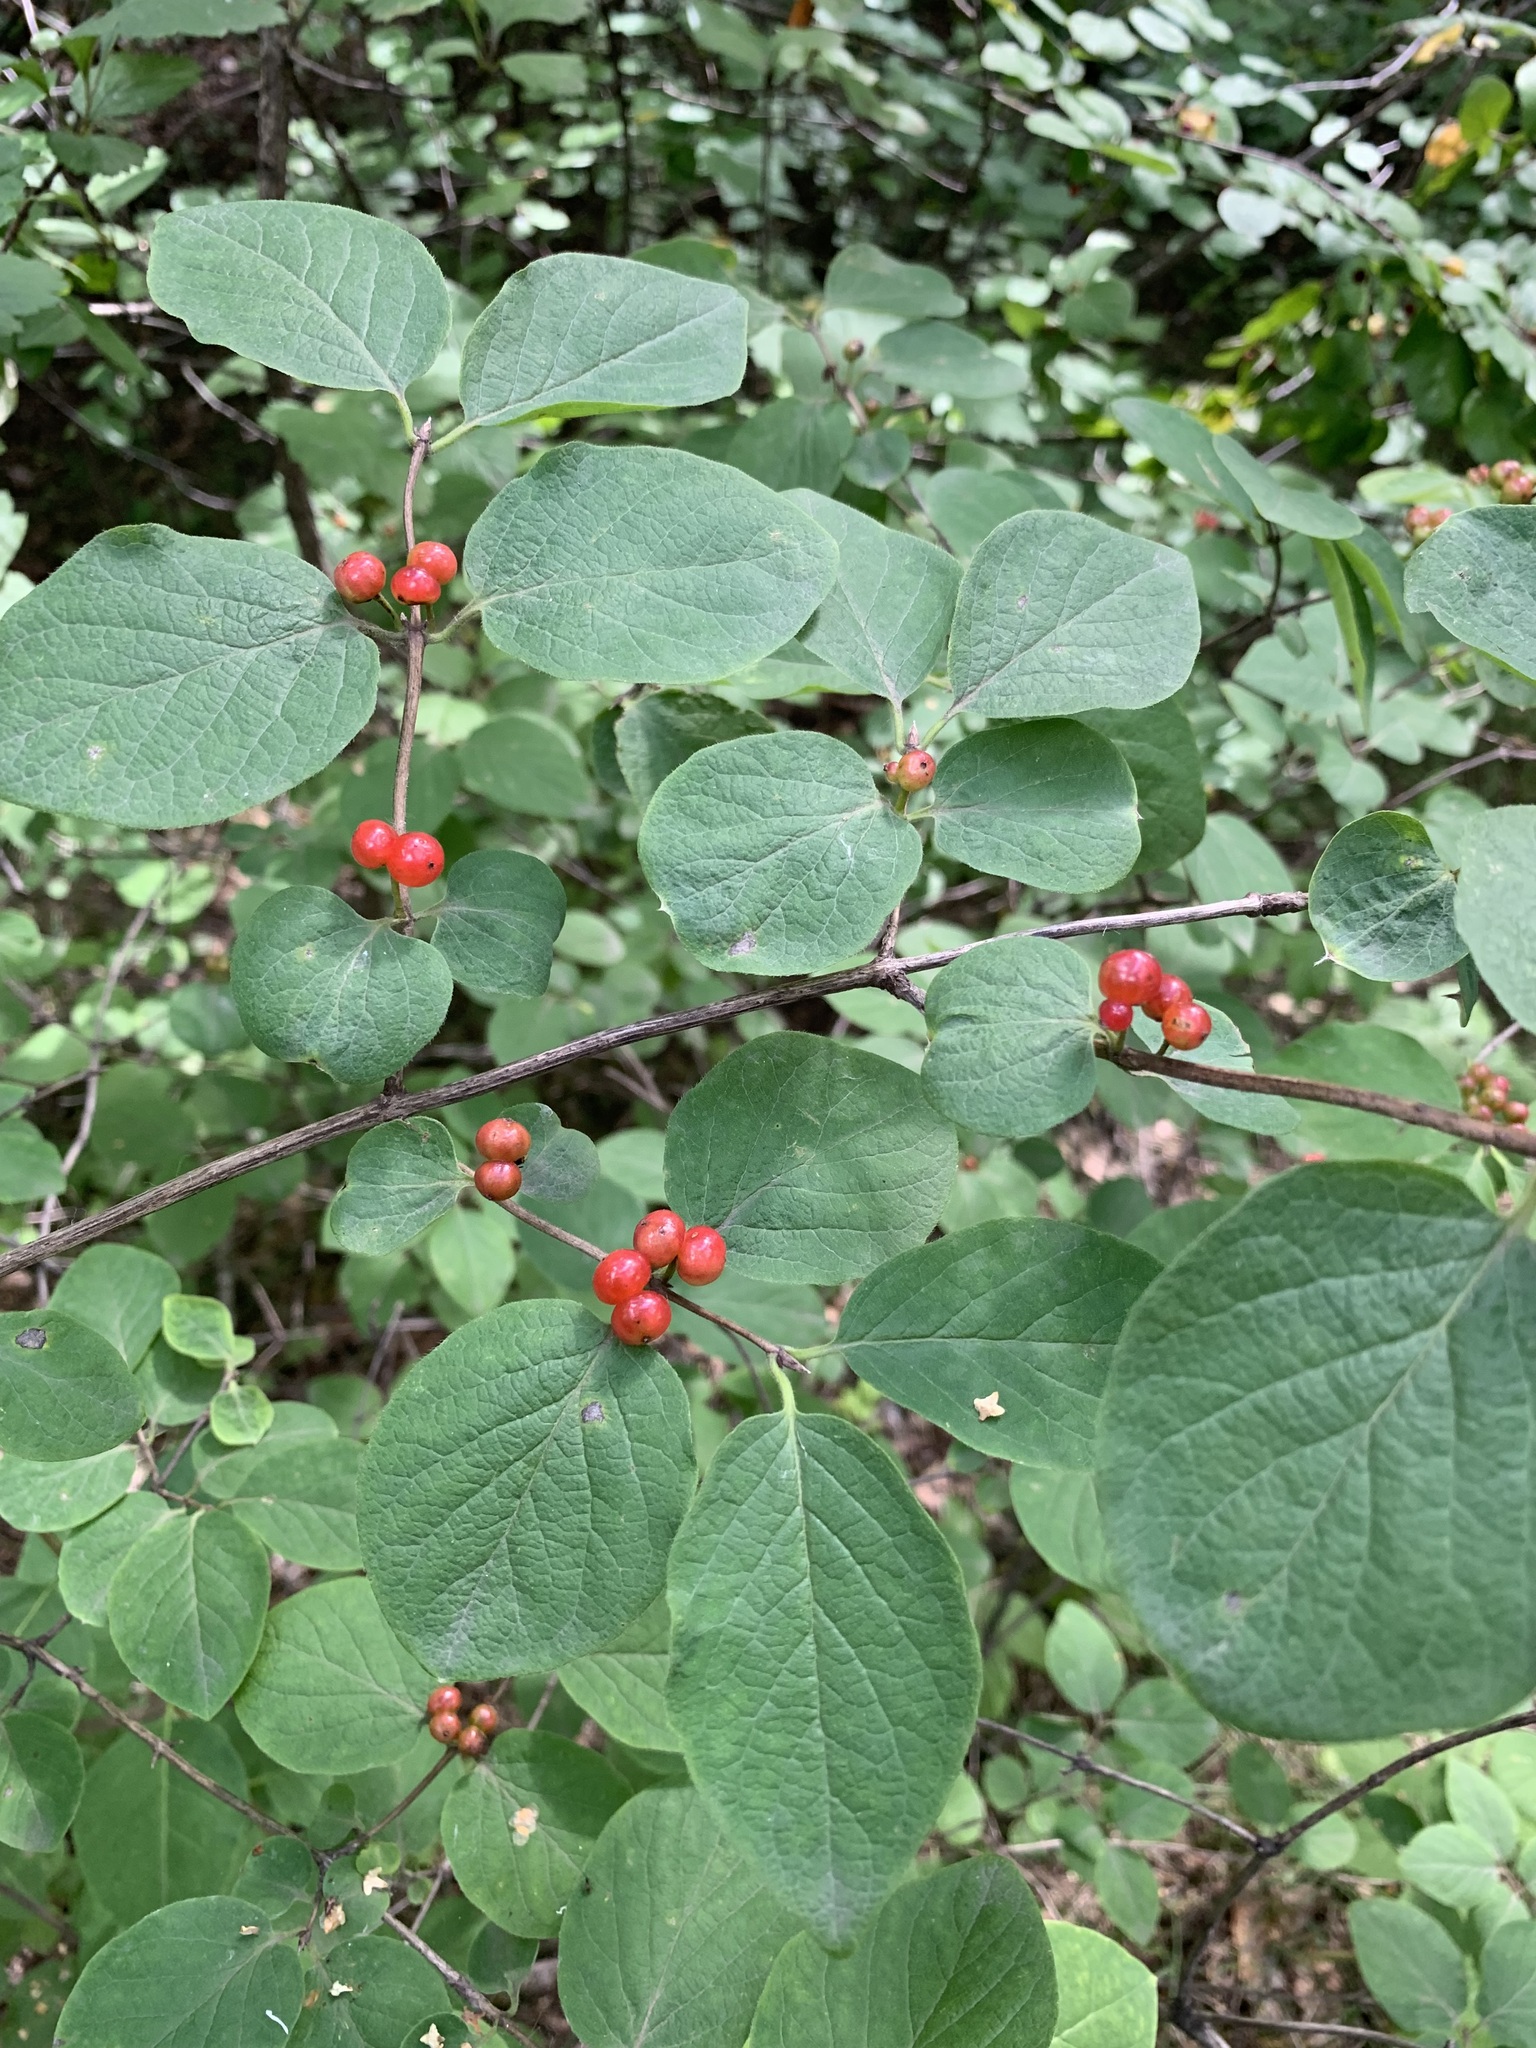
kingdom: Plantae
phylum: Tracheophyta
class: Magnoliopsida
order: Dipsacales
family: Caprifoliaceae
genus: Lonicera
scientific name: Lonicera xylosteum
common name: Fly honeysuckle
